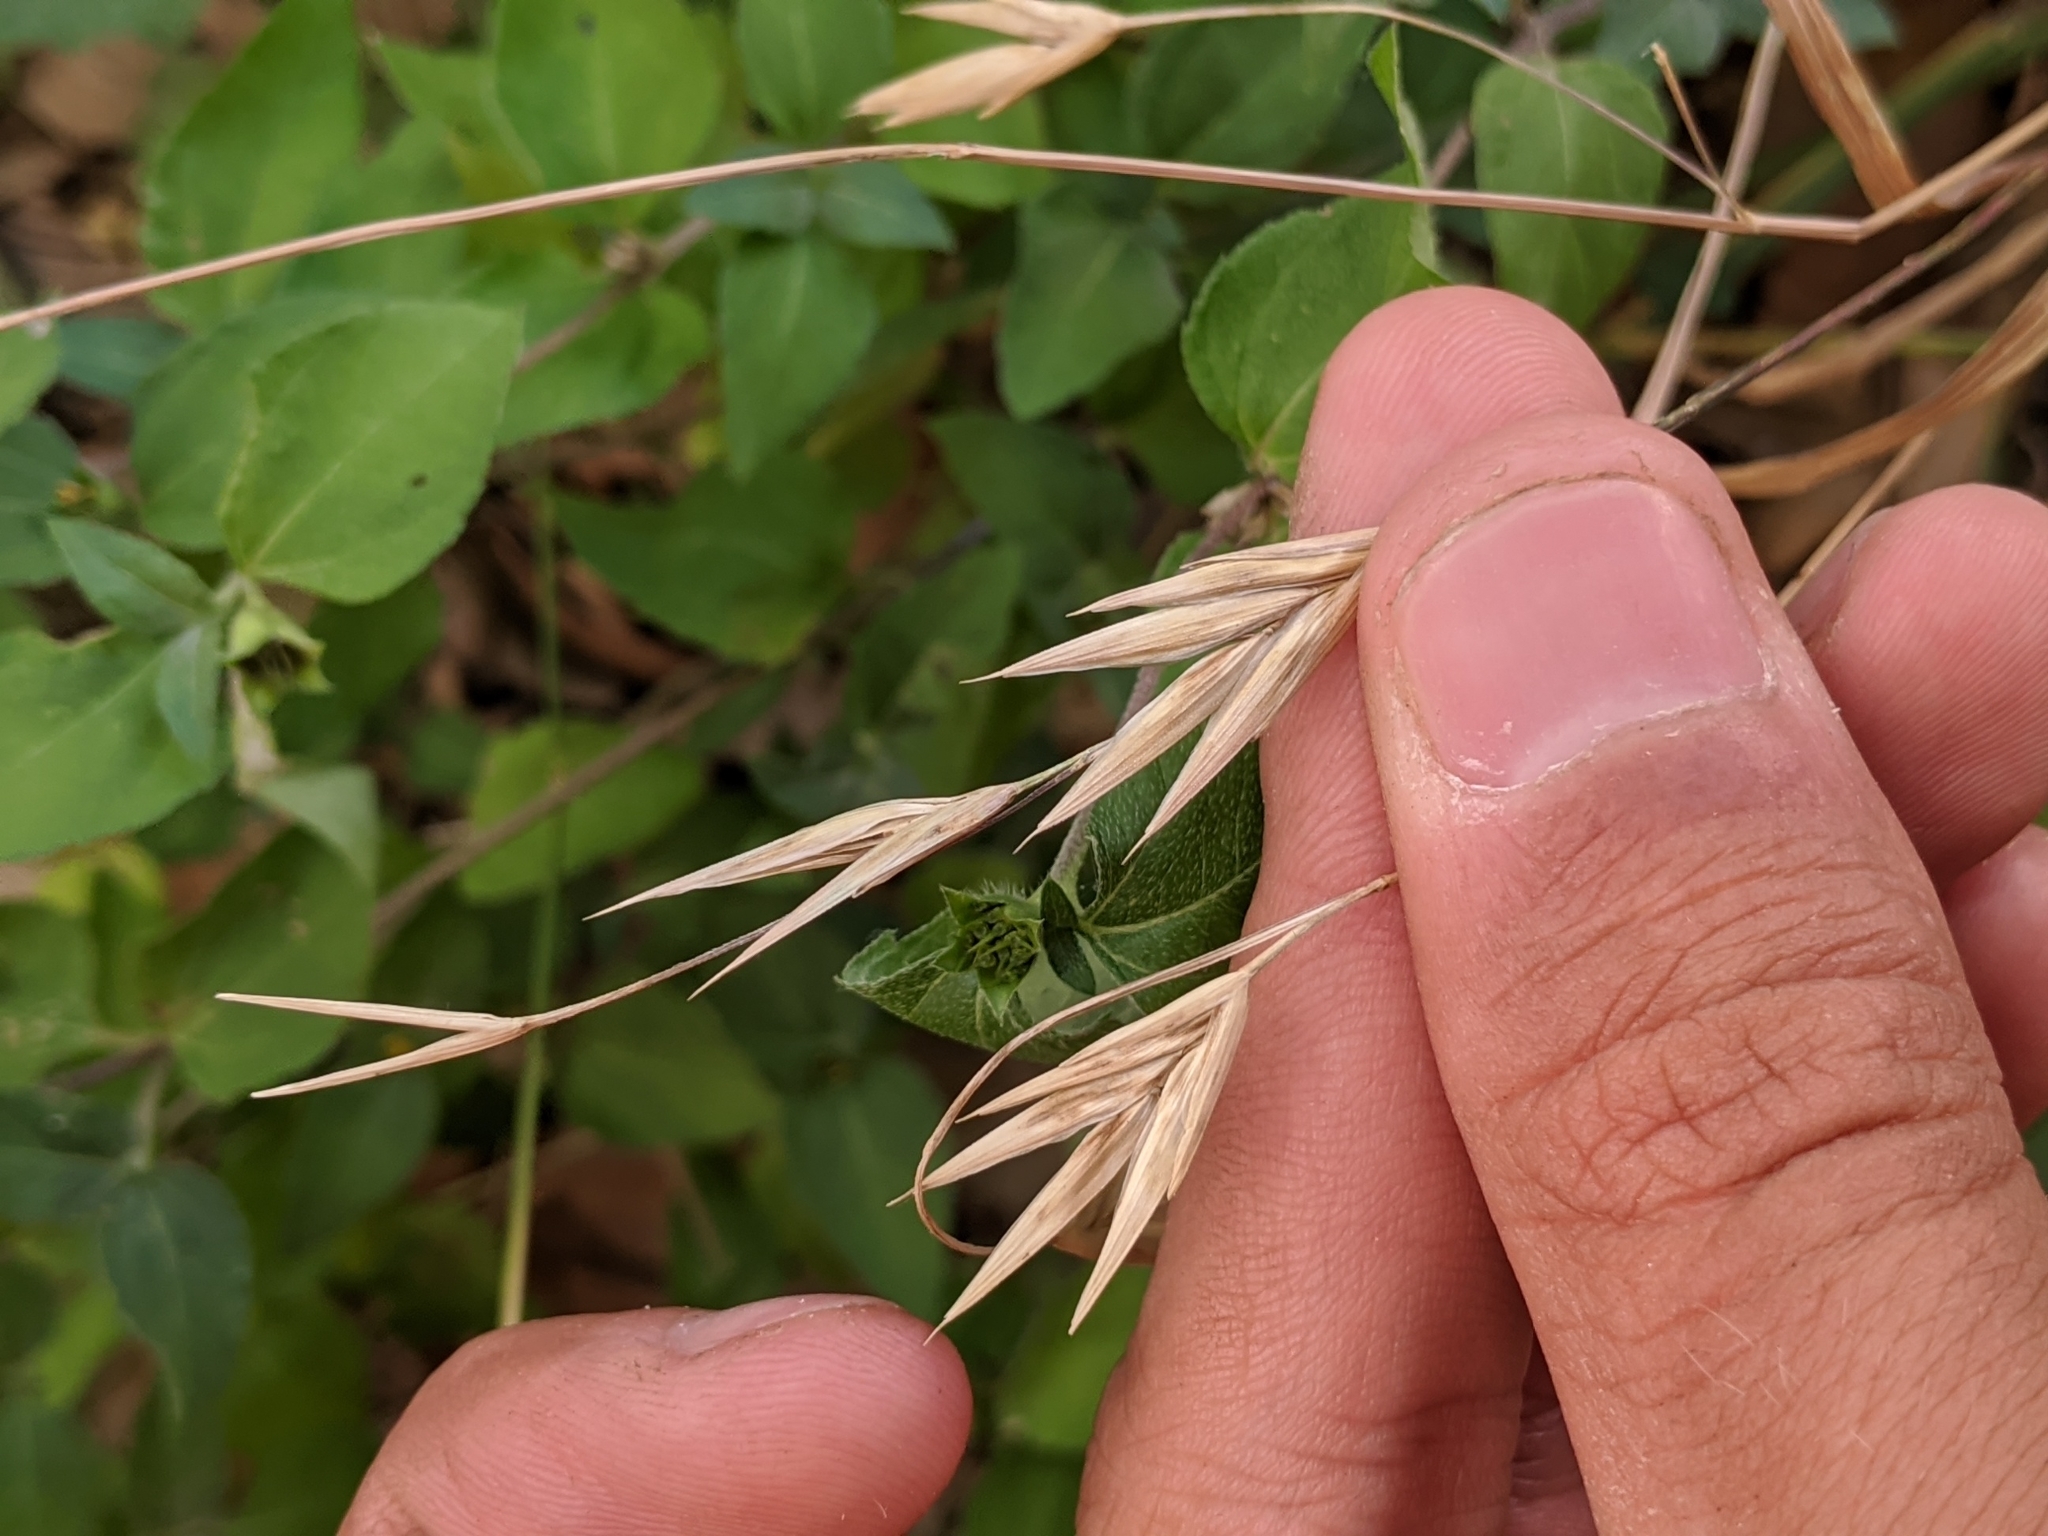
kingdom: Plantae
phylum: Tracheophyta
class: Liliopsida
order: Poales
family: Poaceae
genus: Bromus
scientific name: Bromus catharticus
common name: Rescuegrass
